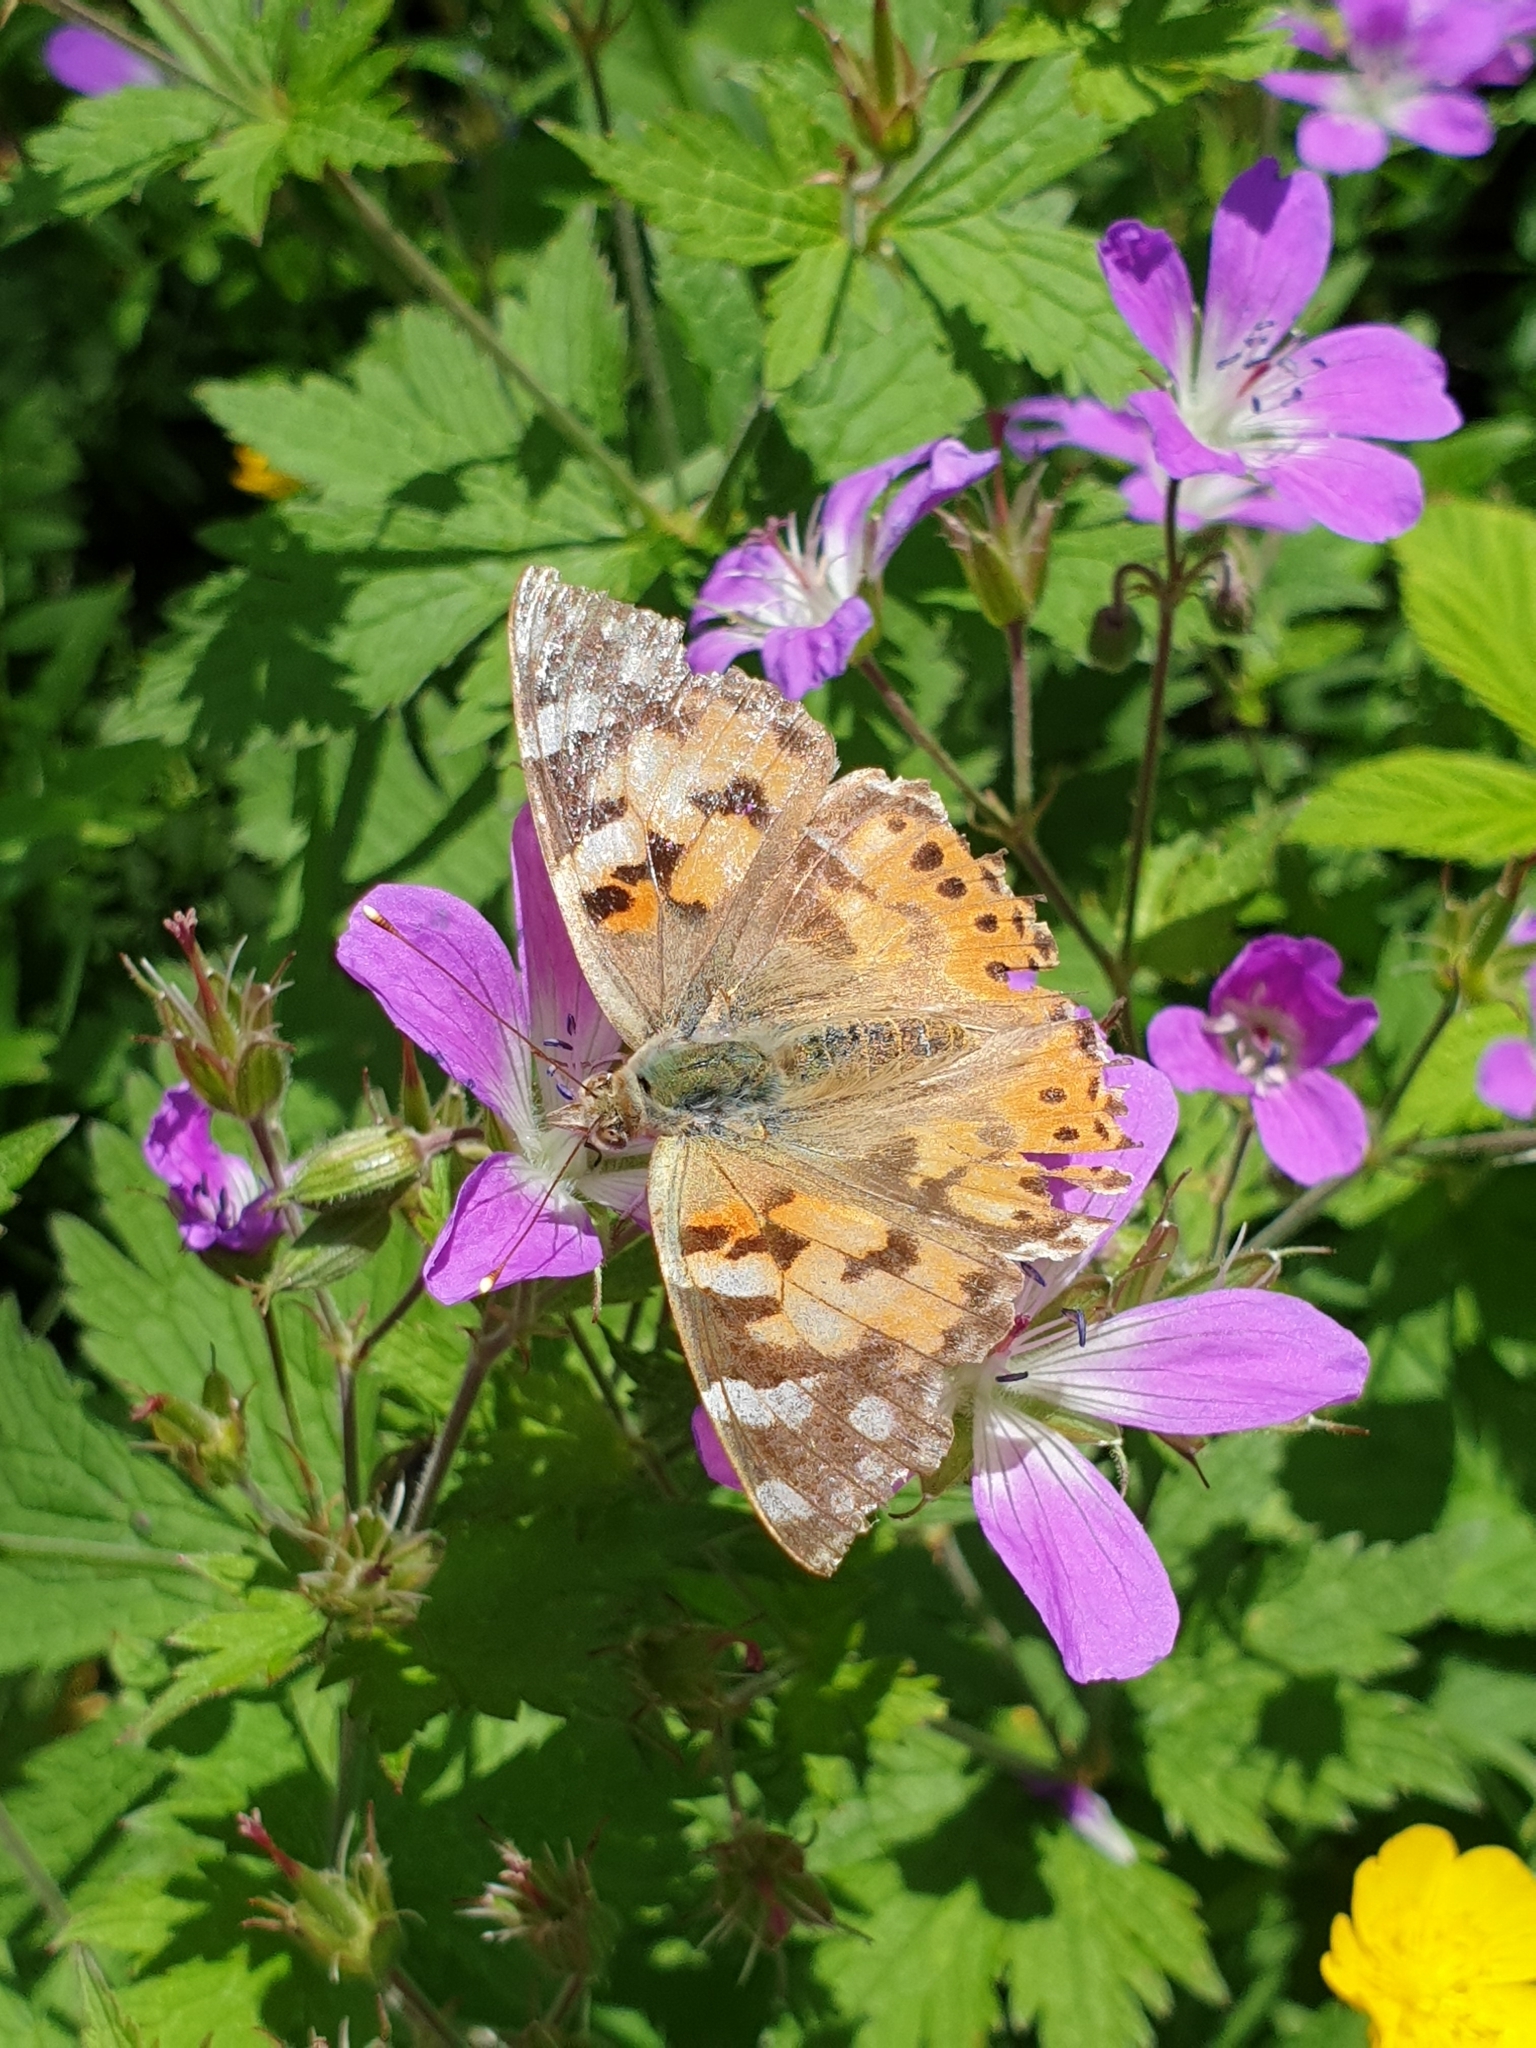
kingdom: Animalia
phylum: Arthropoda
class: Insecta
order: Lepidoptera
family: Nymphalidae
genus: Vanessa
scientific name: Vanessa cardui
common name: Painted lady
